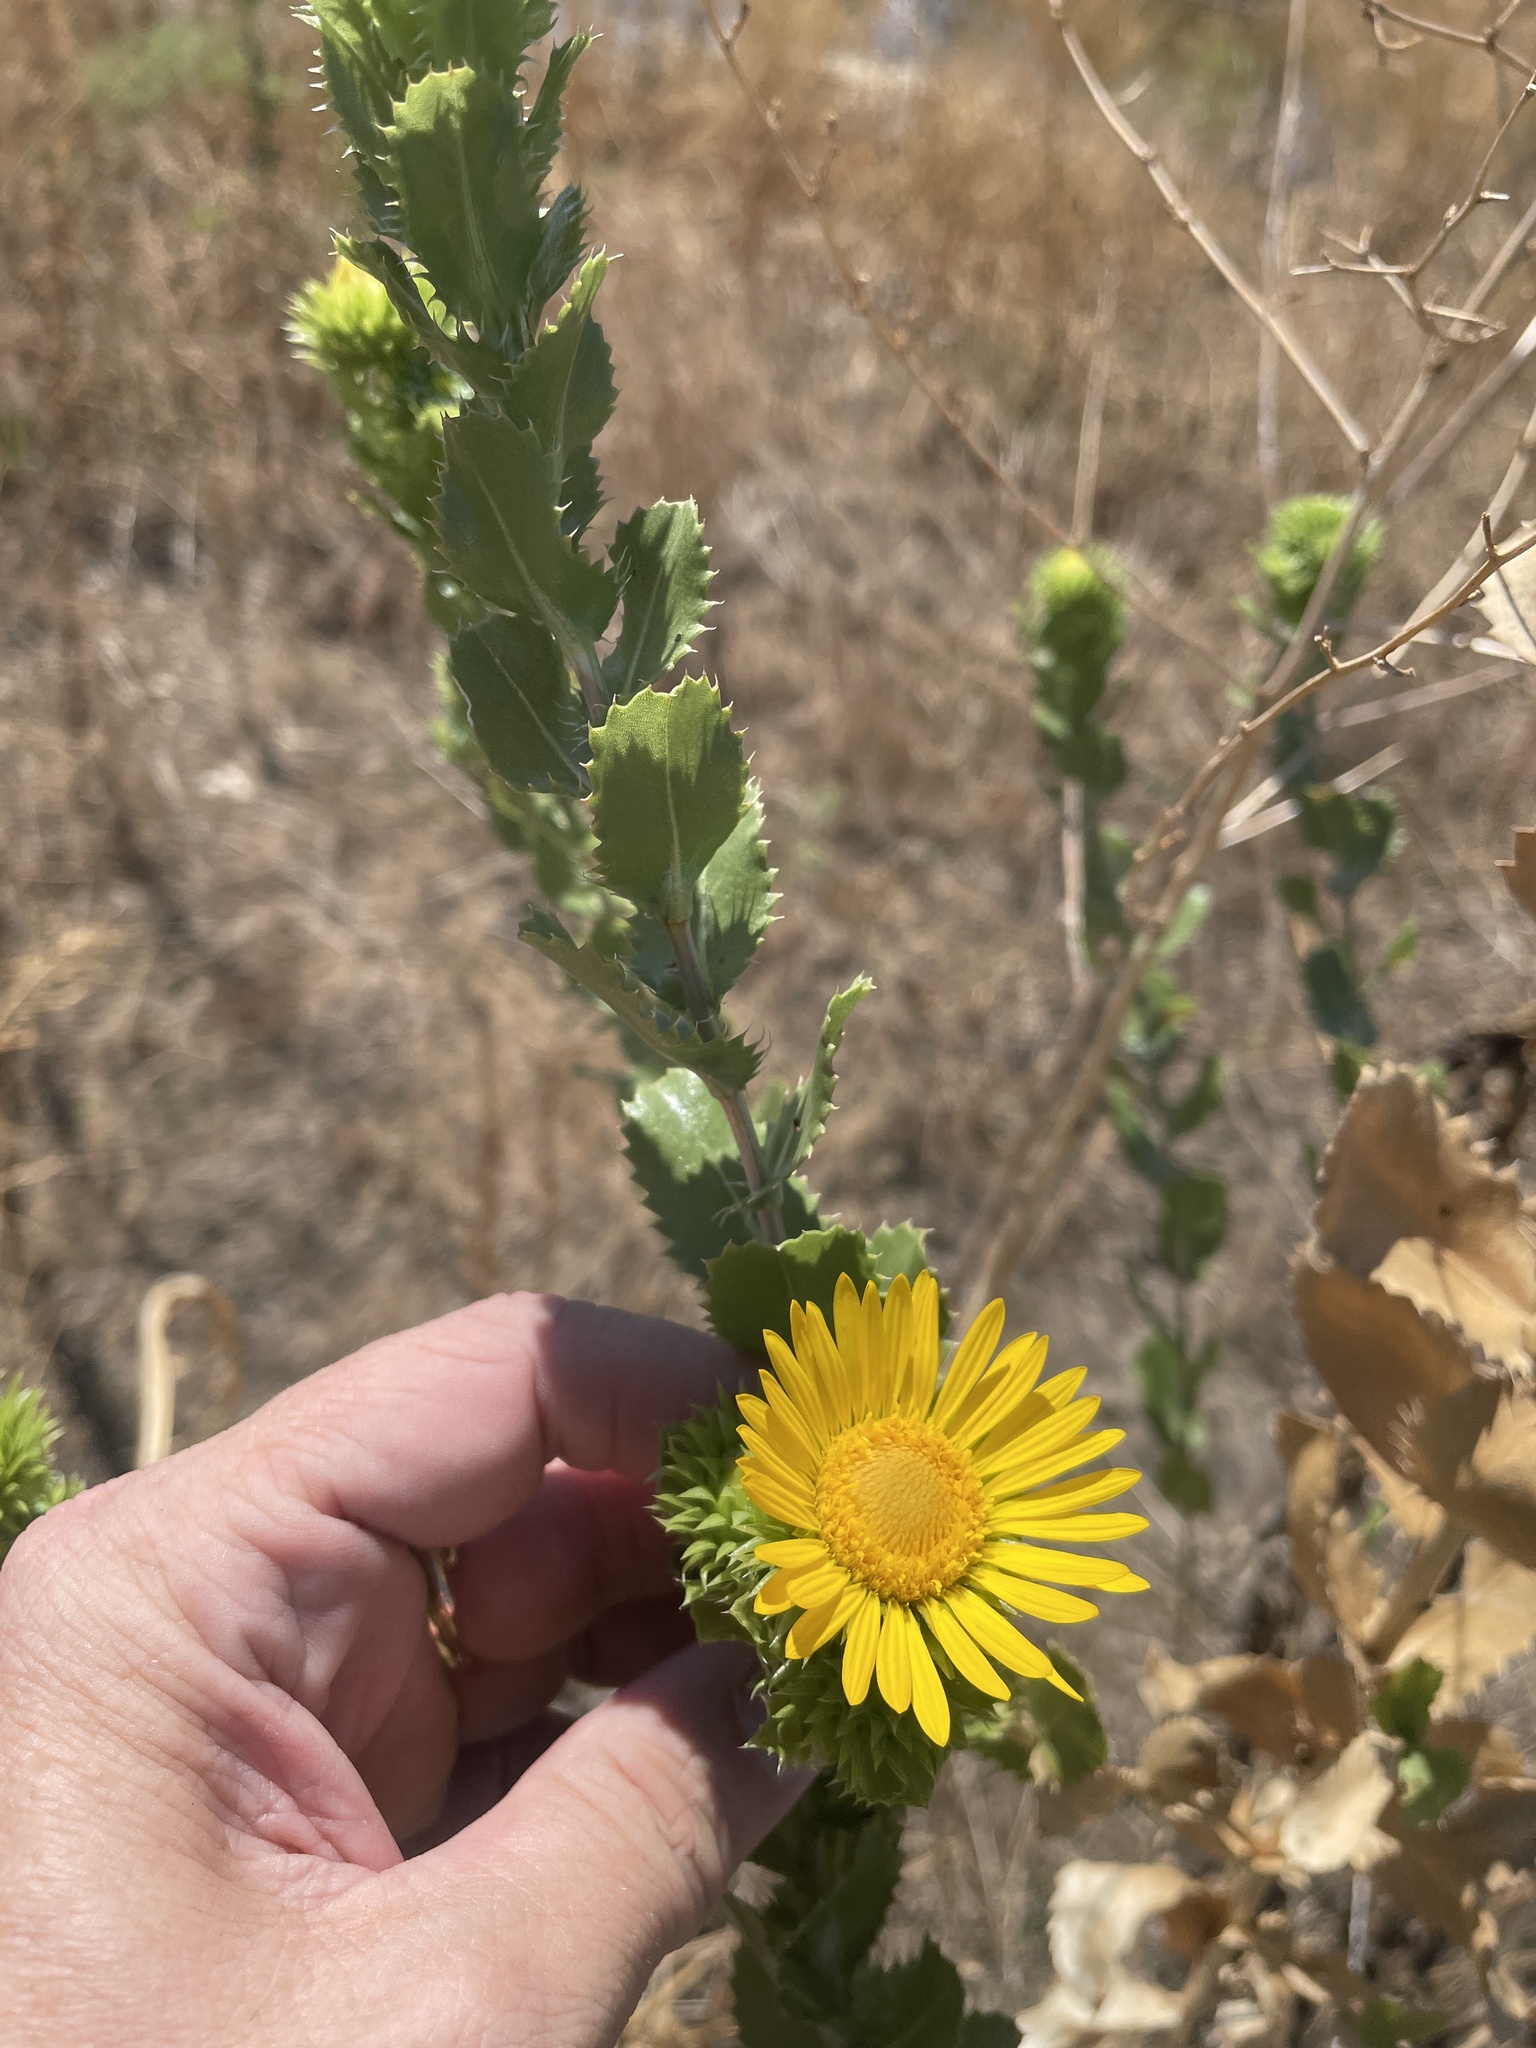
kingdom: Plantae
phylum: Tracheophyta
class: Magnoliopsida
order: Asterales
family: Asteraceae
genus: Grindelia
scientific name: Grindelia ciliata
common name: Goldenweed
